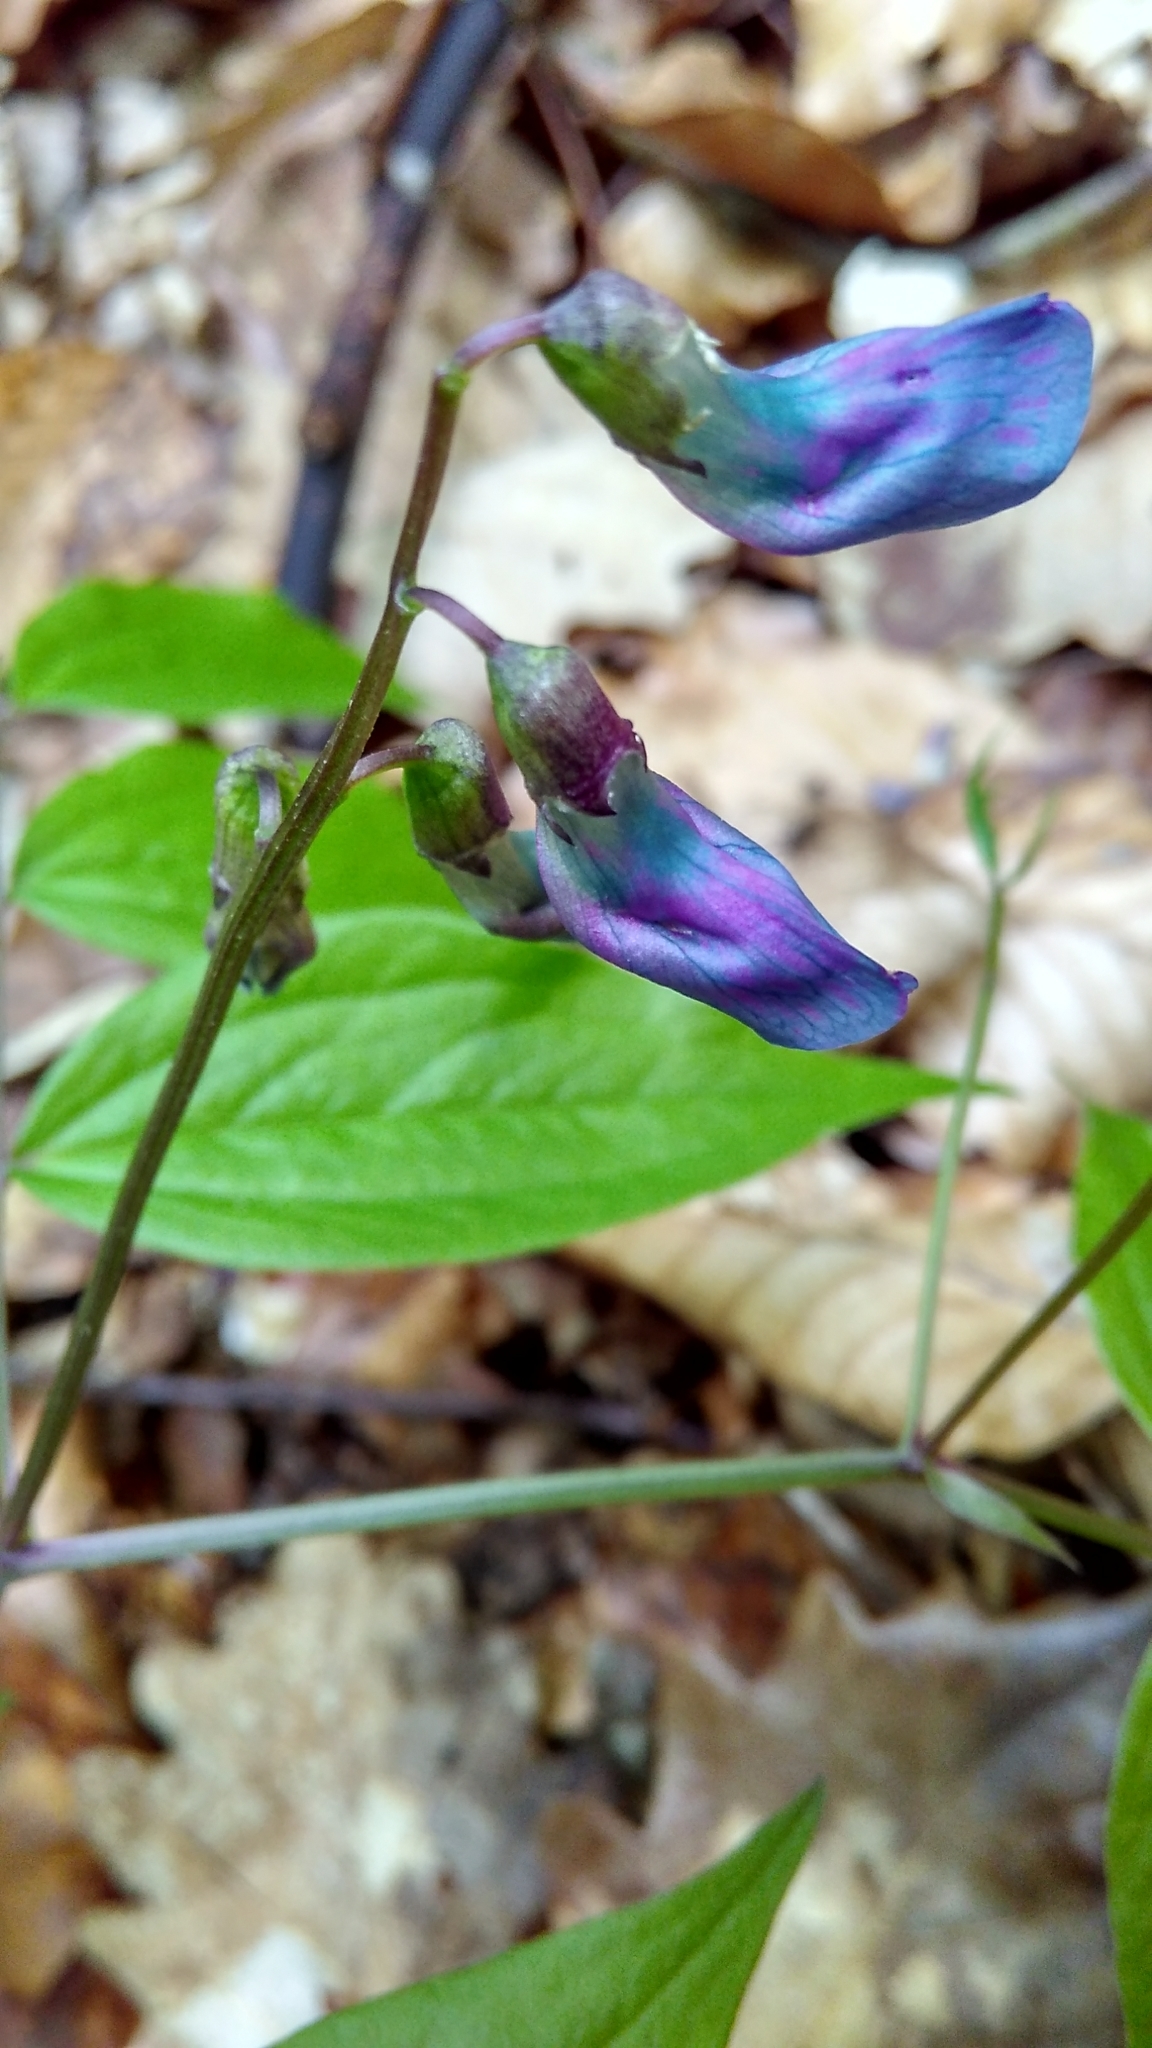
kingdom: Plantae
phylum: Tracheophyta
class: Magnoliopsida
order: Fabales
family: Fabaceae
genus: Lathyrus
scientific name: Lathyrus vernus
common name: Spring pea
